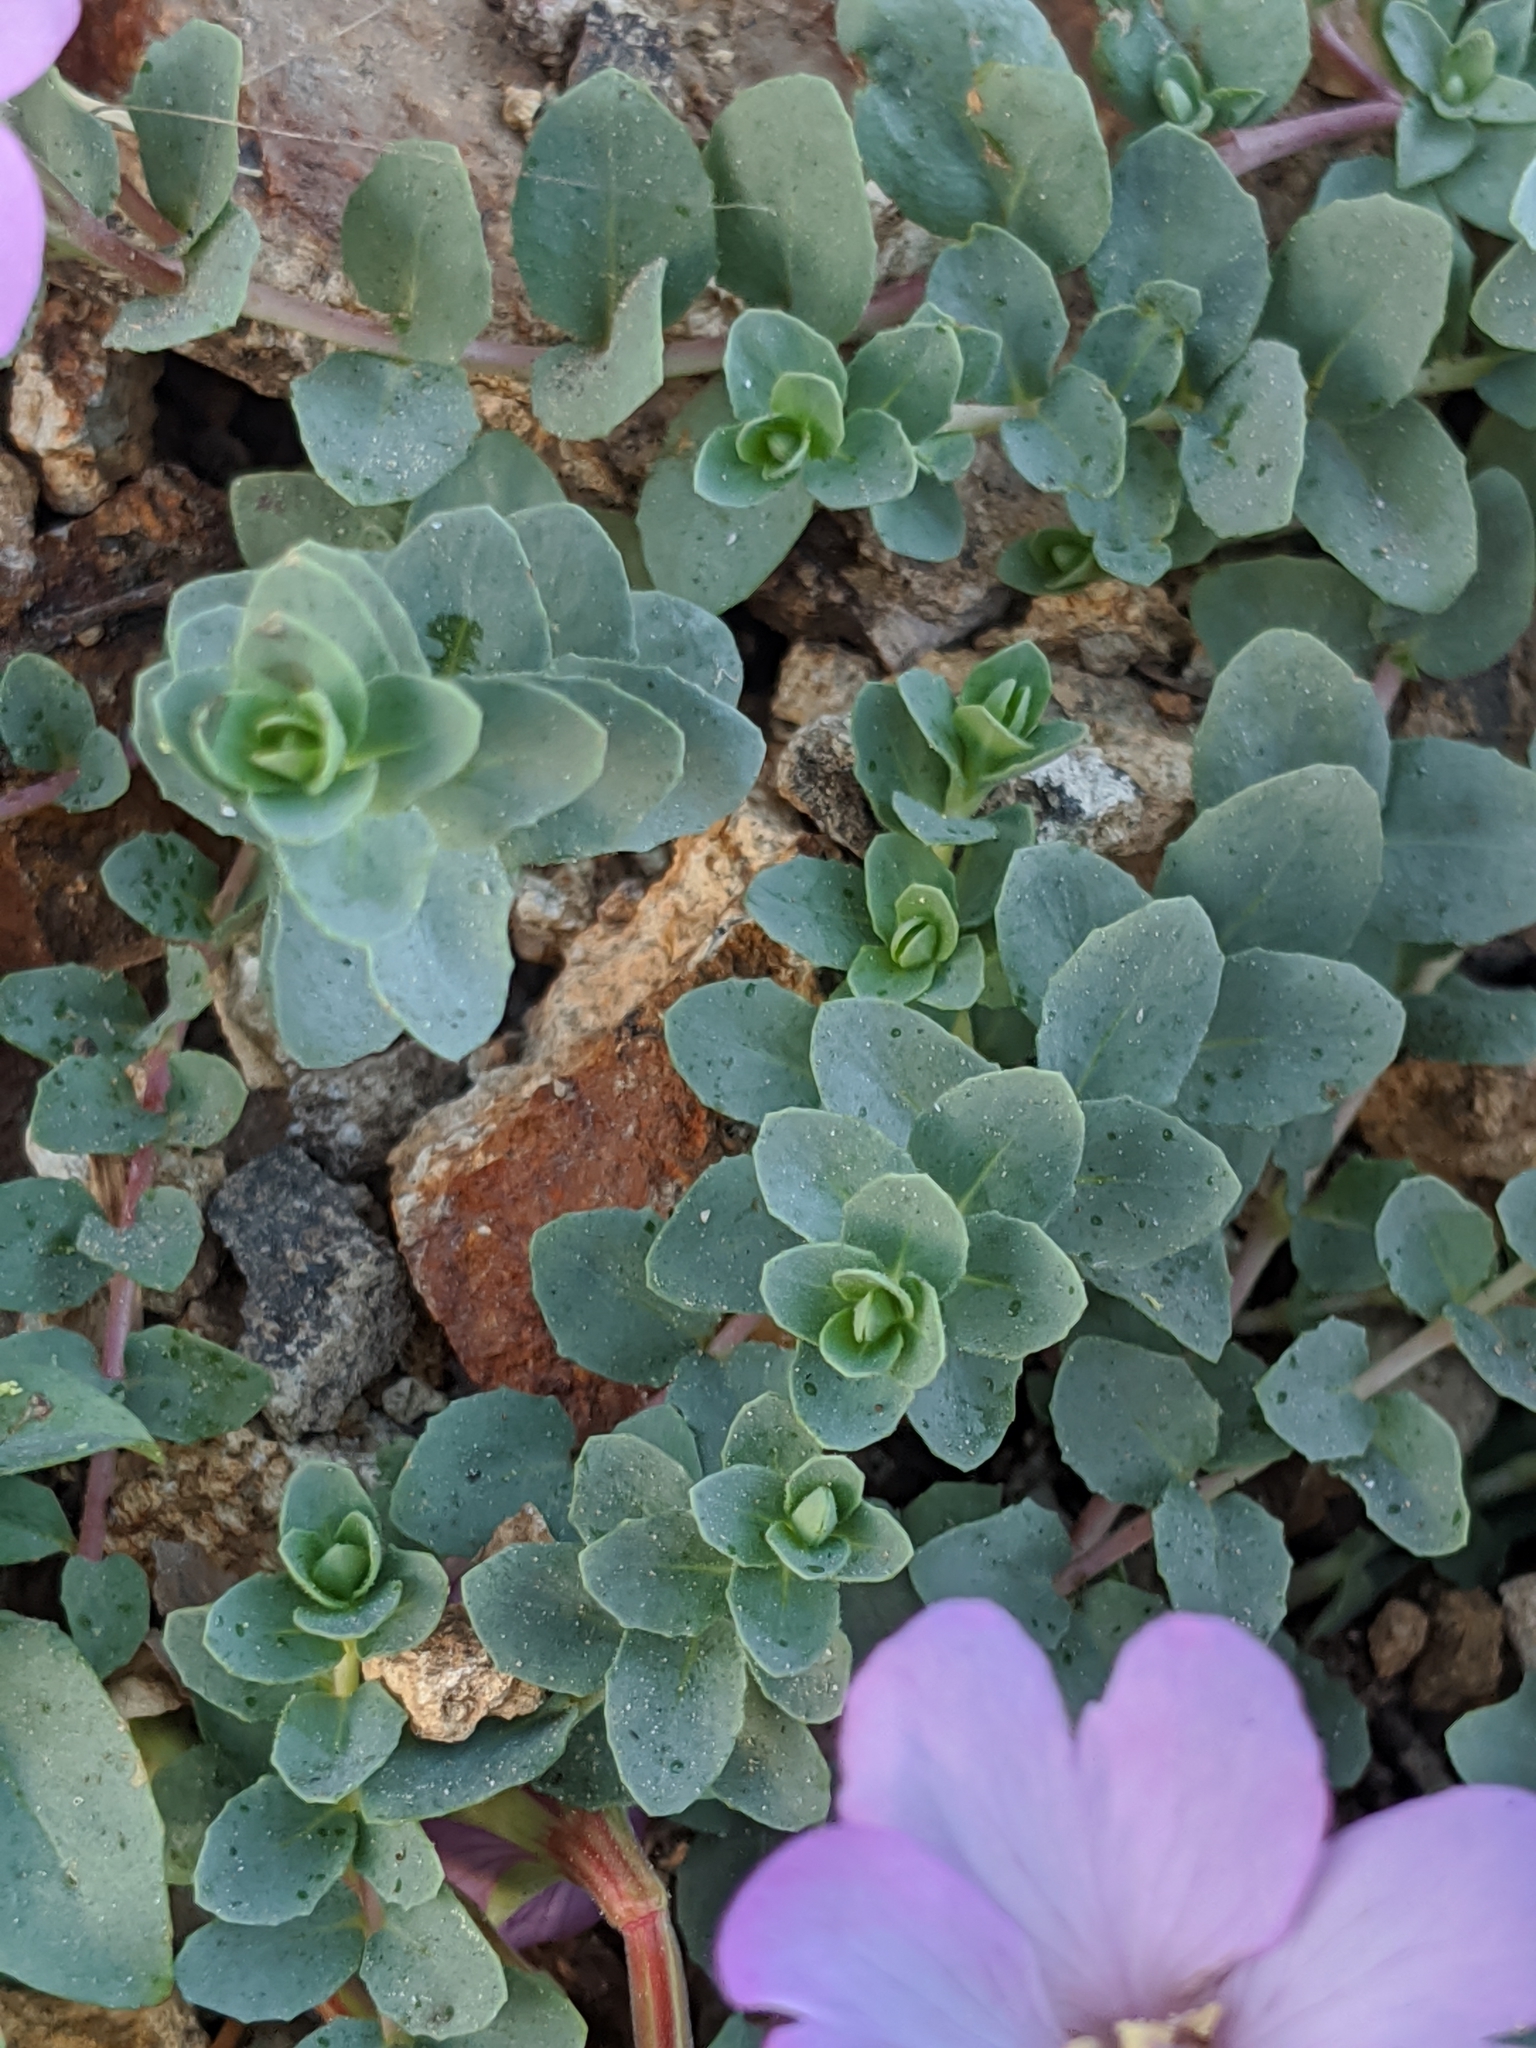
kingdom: Plantae
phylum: Tracheophyta
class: Magnoliopsida
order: Myrtales
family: Onagraceae
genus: Epilobium
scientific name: Epilobium obcordatum
